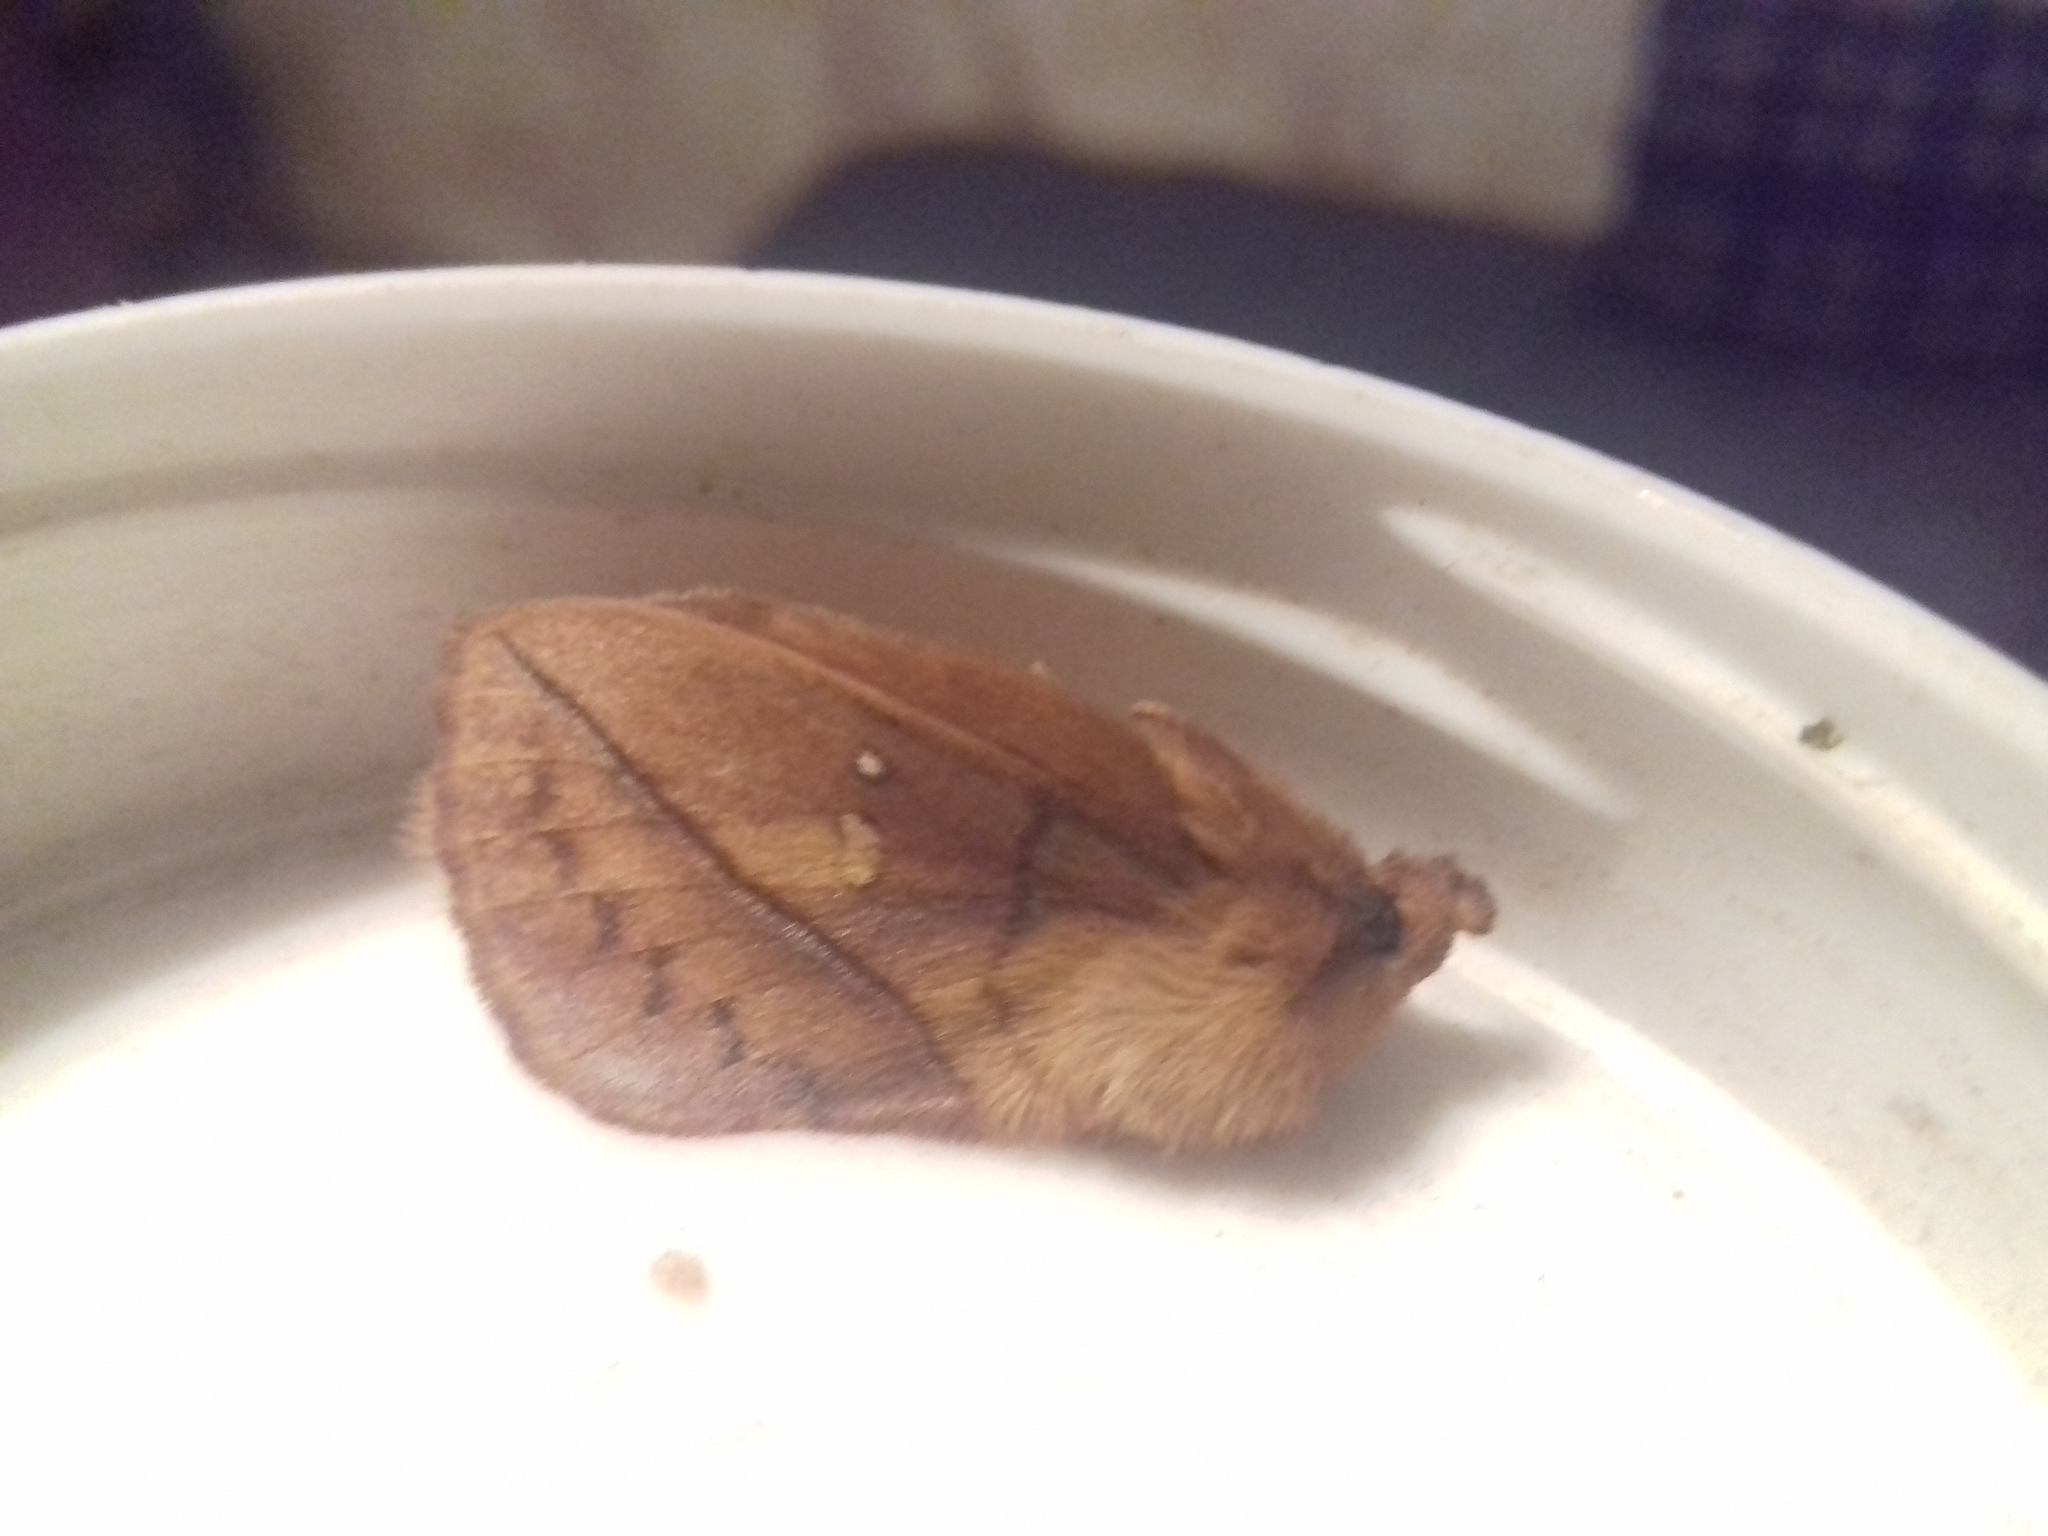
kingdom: Animalia
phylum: Arthropoda
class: Insecta
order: Lepidoptera
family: Lasiocampidae
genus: Euthrix
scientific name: Euthrix potatoria
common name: Drinker
